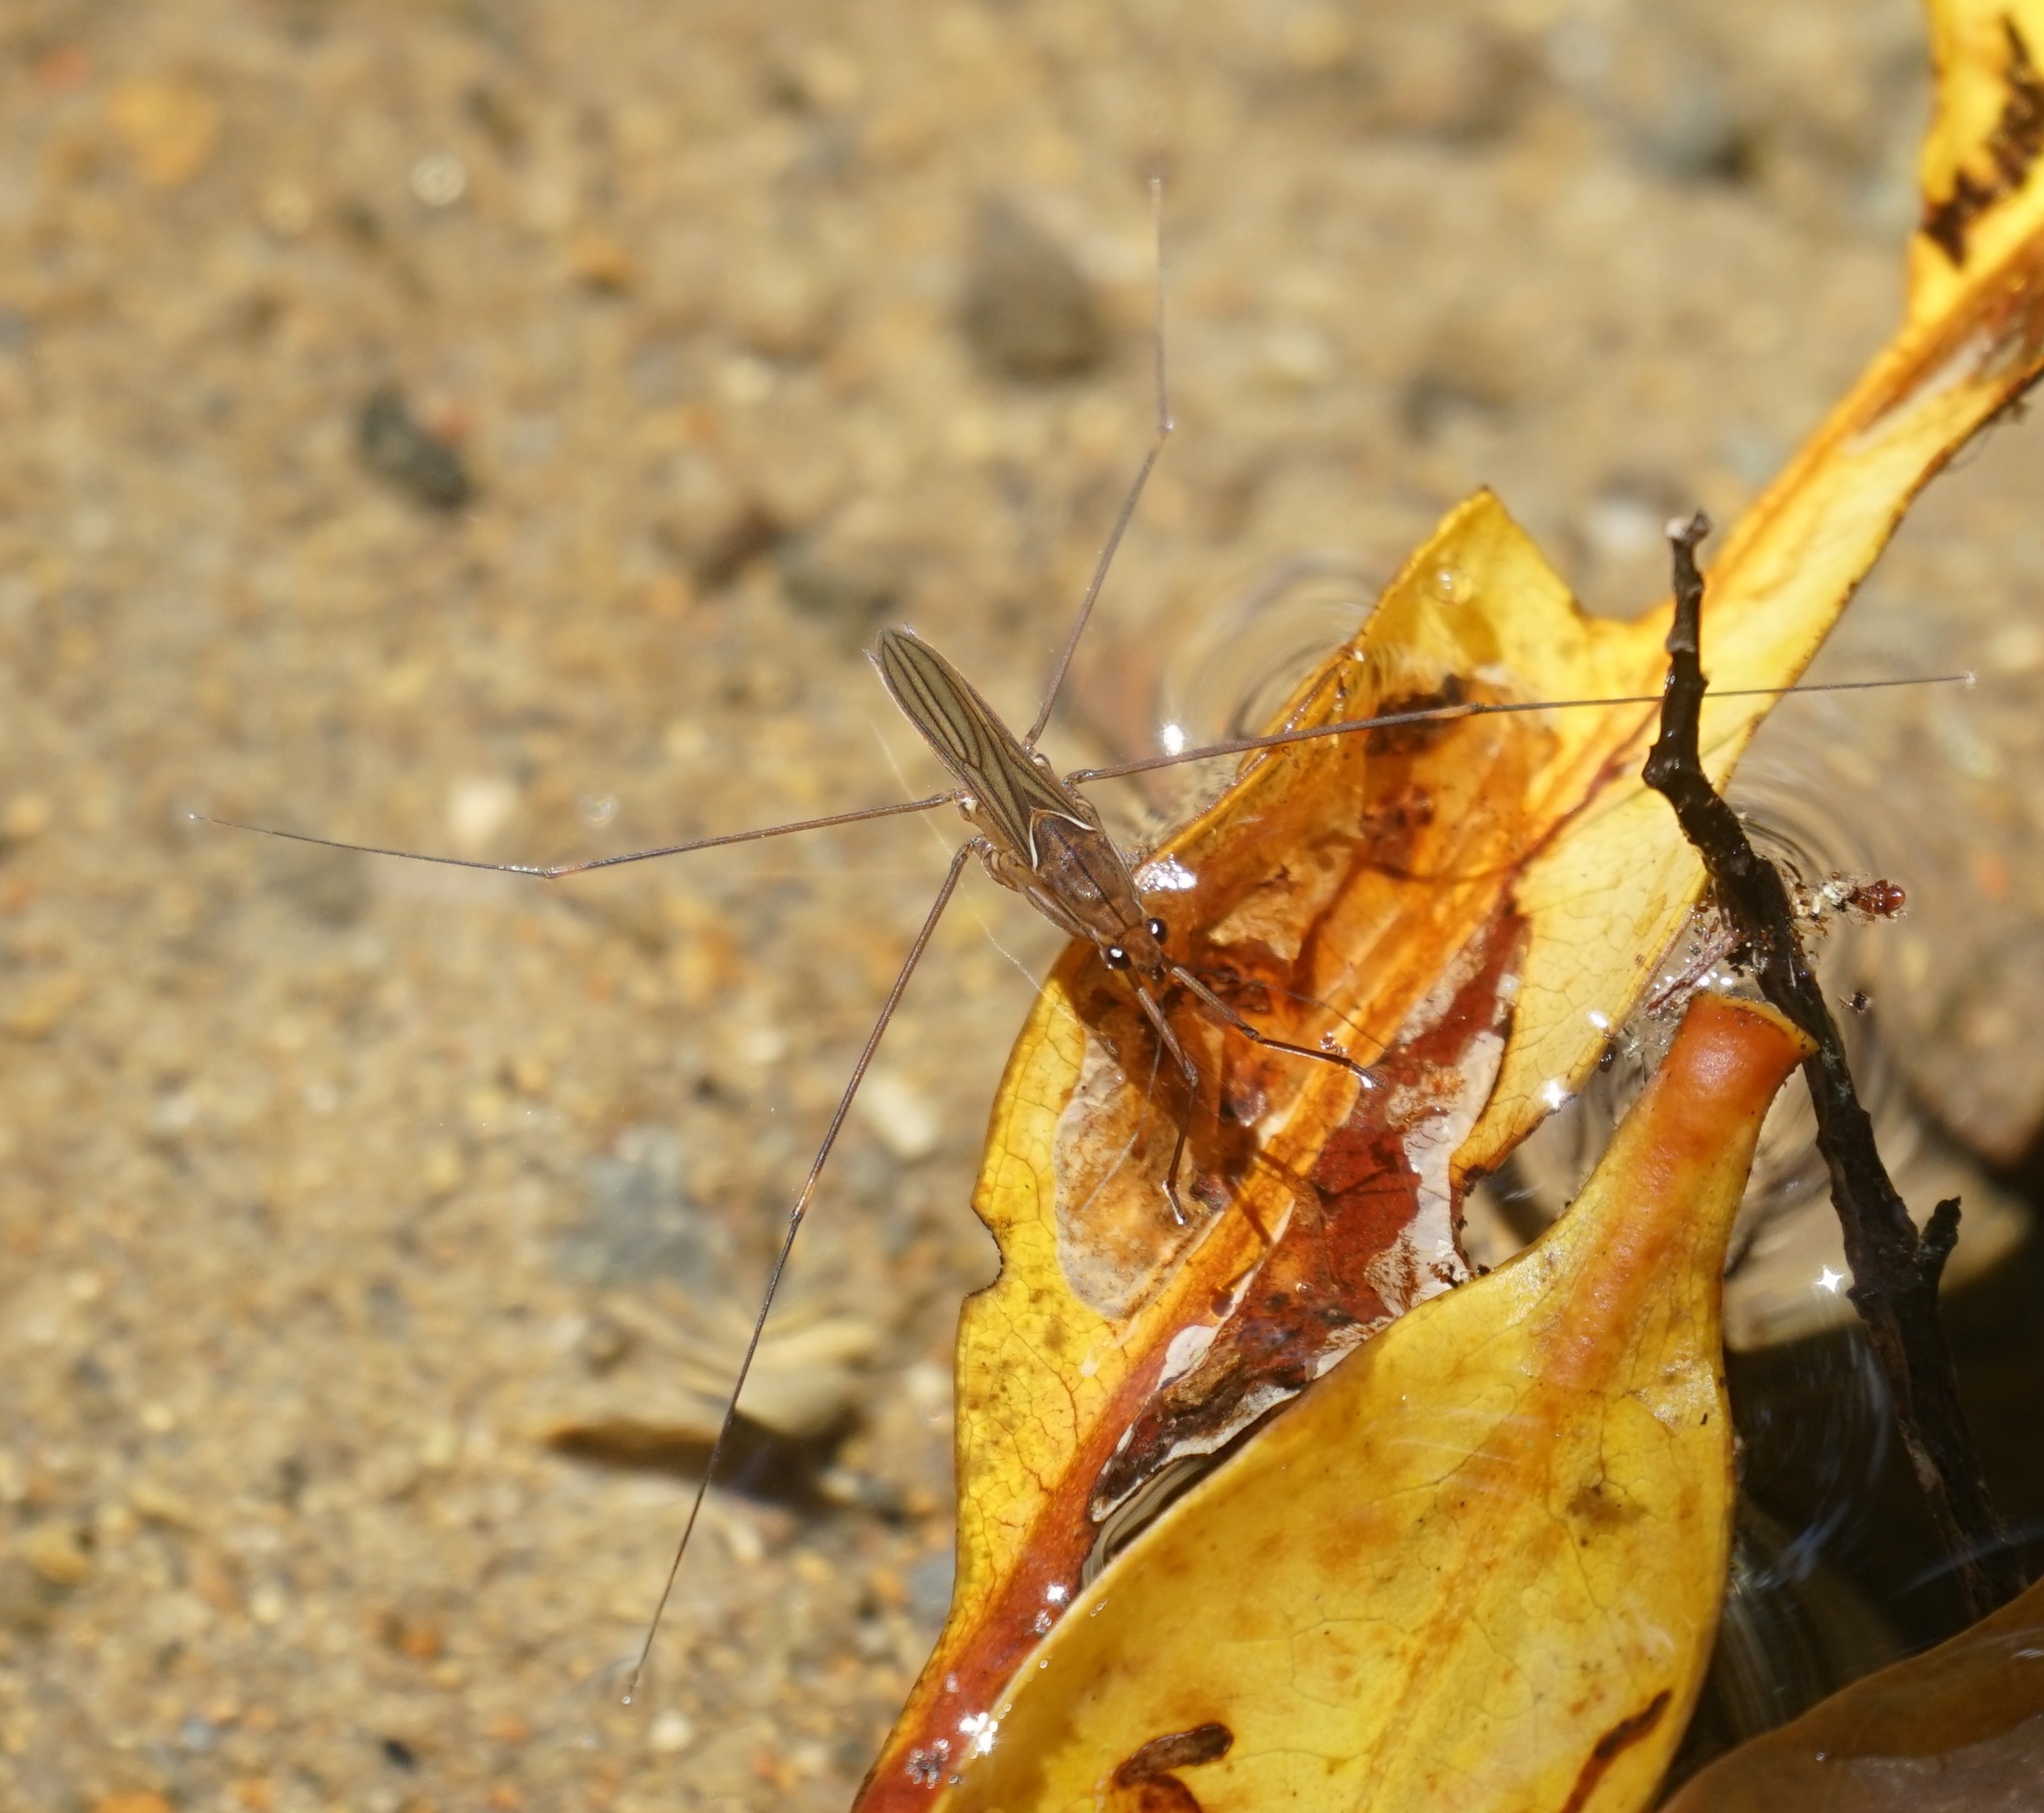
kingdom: Animalia
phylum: Arthropoda
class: Insecta
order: Hemiptera
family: Gerridae
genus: Limnometra
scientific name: Limnometra cursitans
